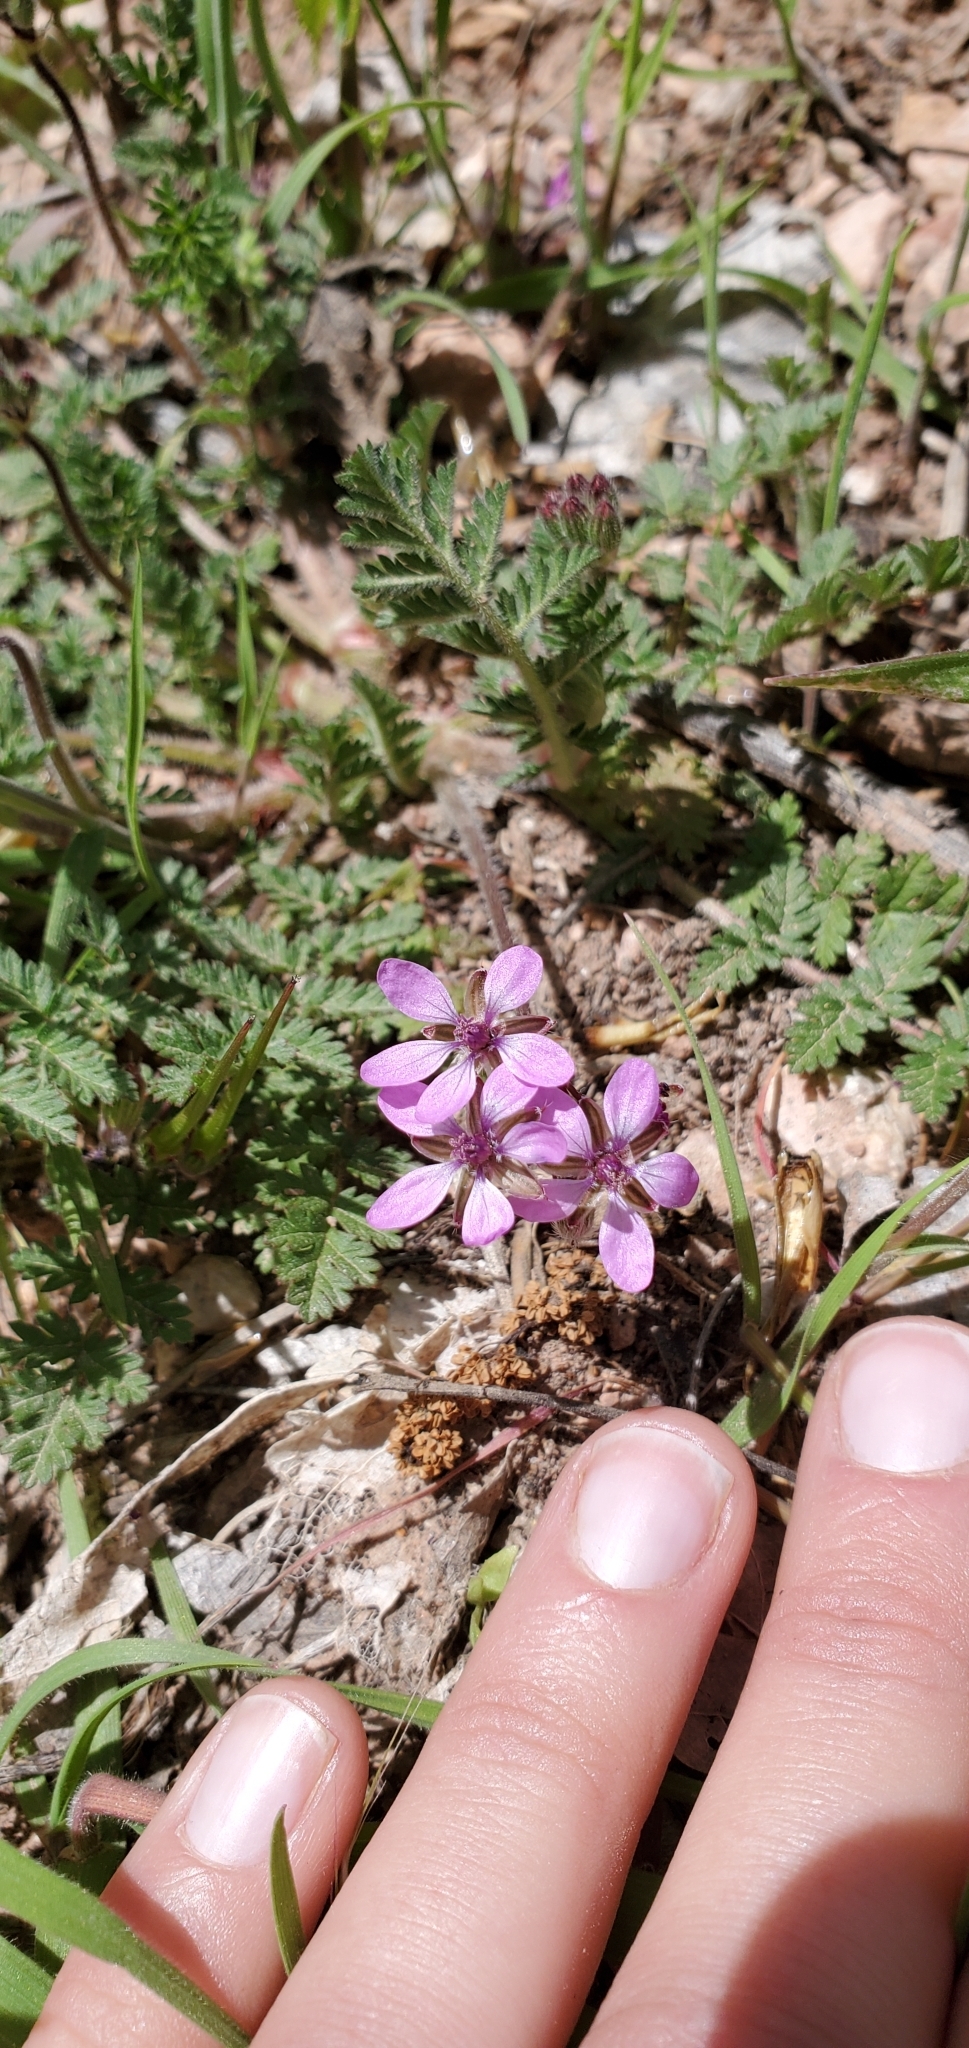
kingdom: Plantae
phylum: Tracheophyta
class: Magnoliopsida
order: Geraniales
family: Geraniaceae
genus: Erodium
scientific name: Erodium cicutarium
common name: Common stork's-bill
